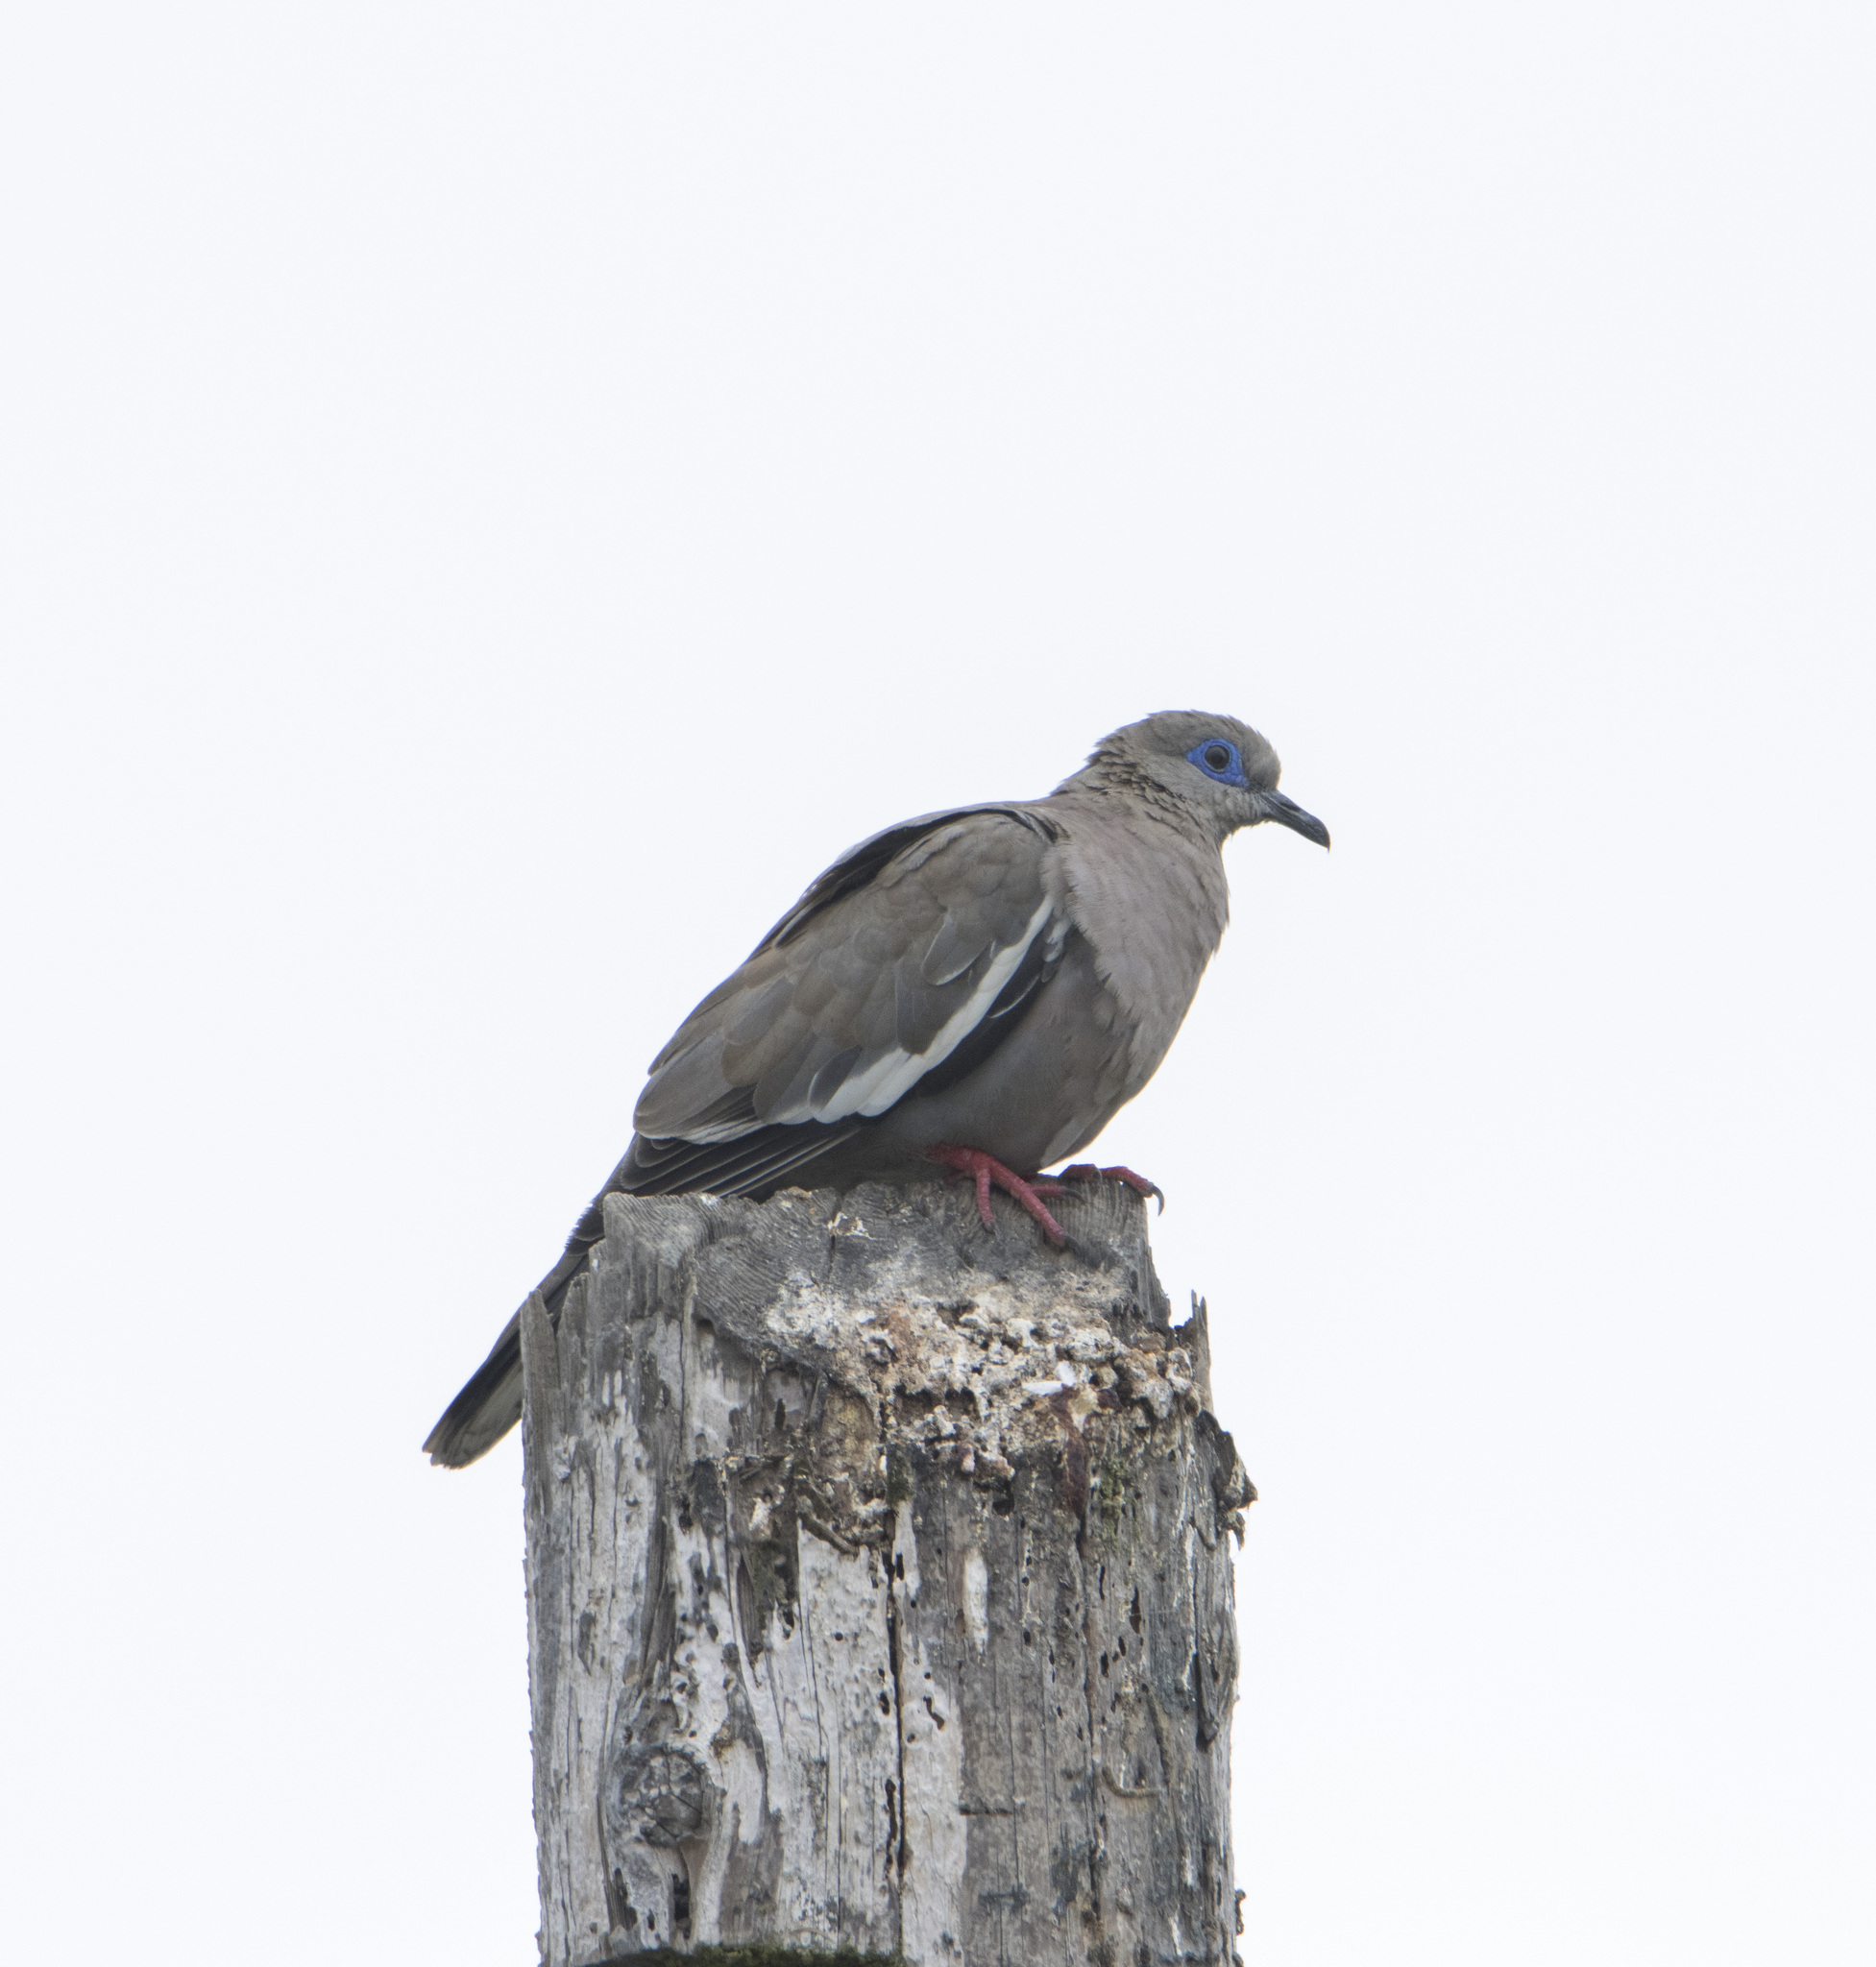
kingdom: Animalia
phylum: Chordata
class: Aves
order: Columbiformes
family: Columbidae
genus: Zenaida
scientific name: Zenaida meloda
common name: West peruvian dove
